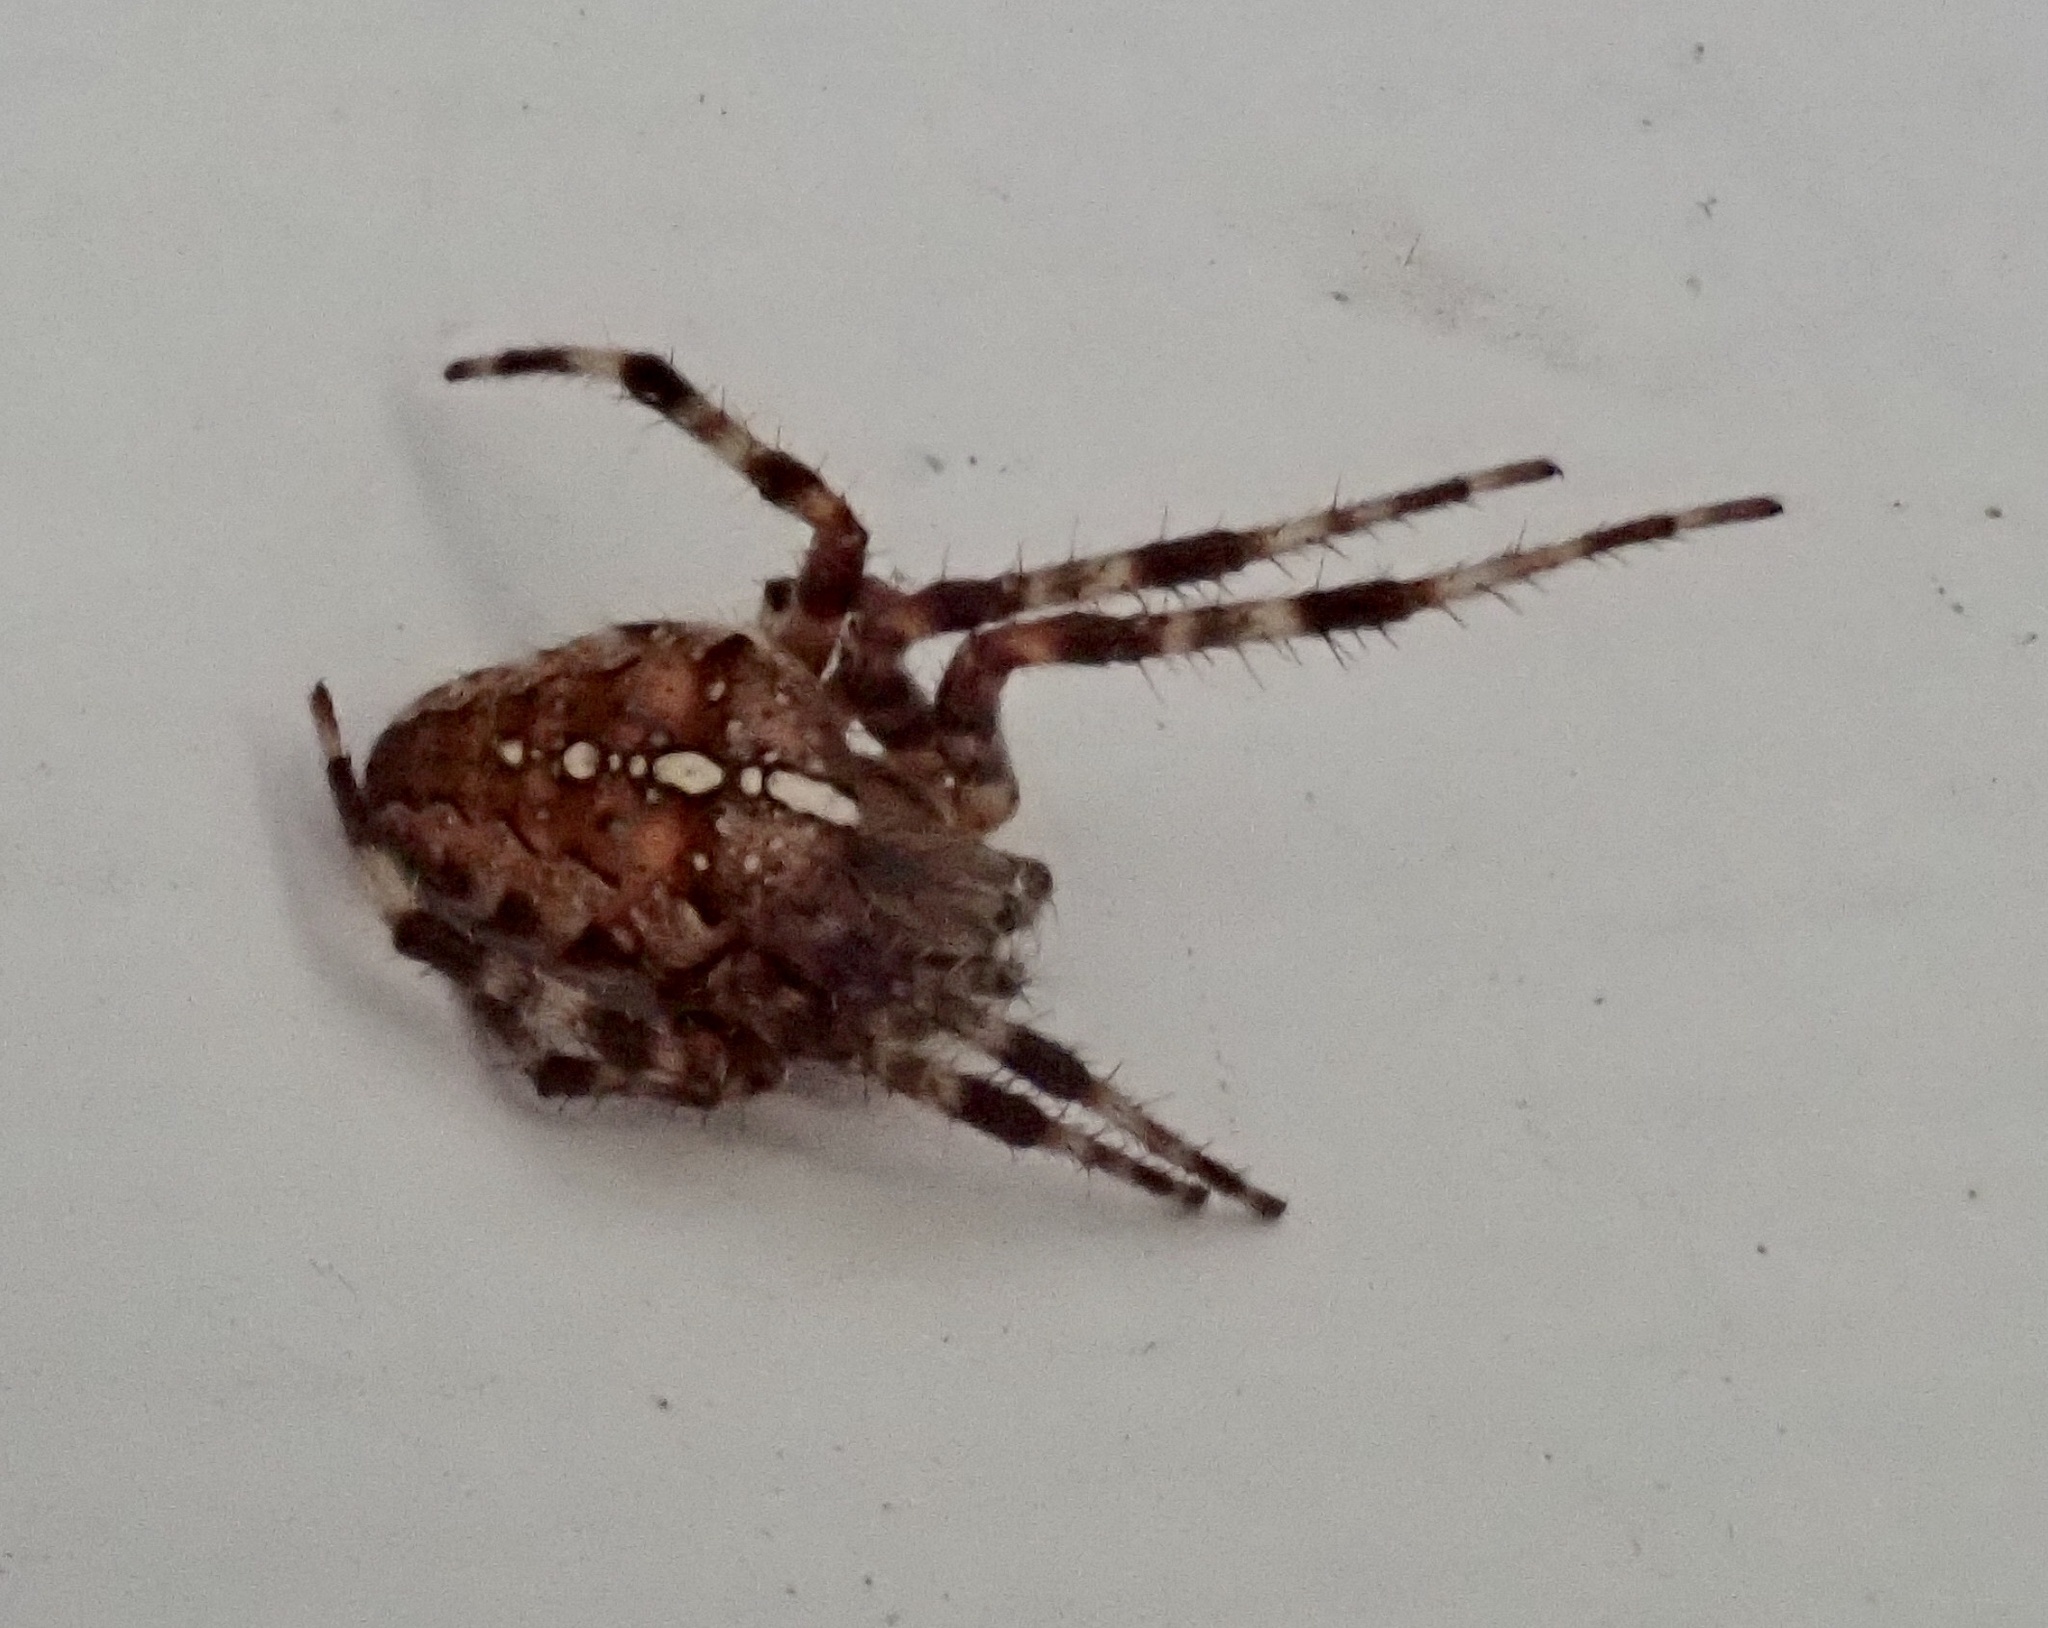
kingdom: Animalia
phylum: Arthropoda
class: Arachnida
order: Araneae
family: Araneidae
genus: Araneus
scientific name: Araneus diadematus
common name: Cross orbweaver
